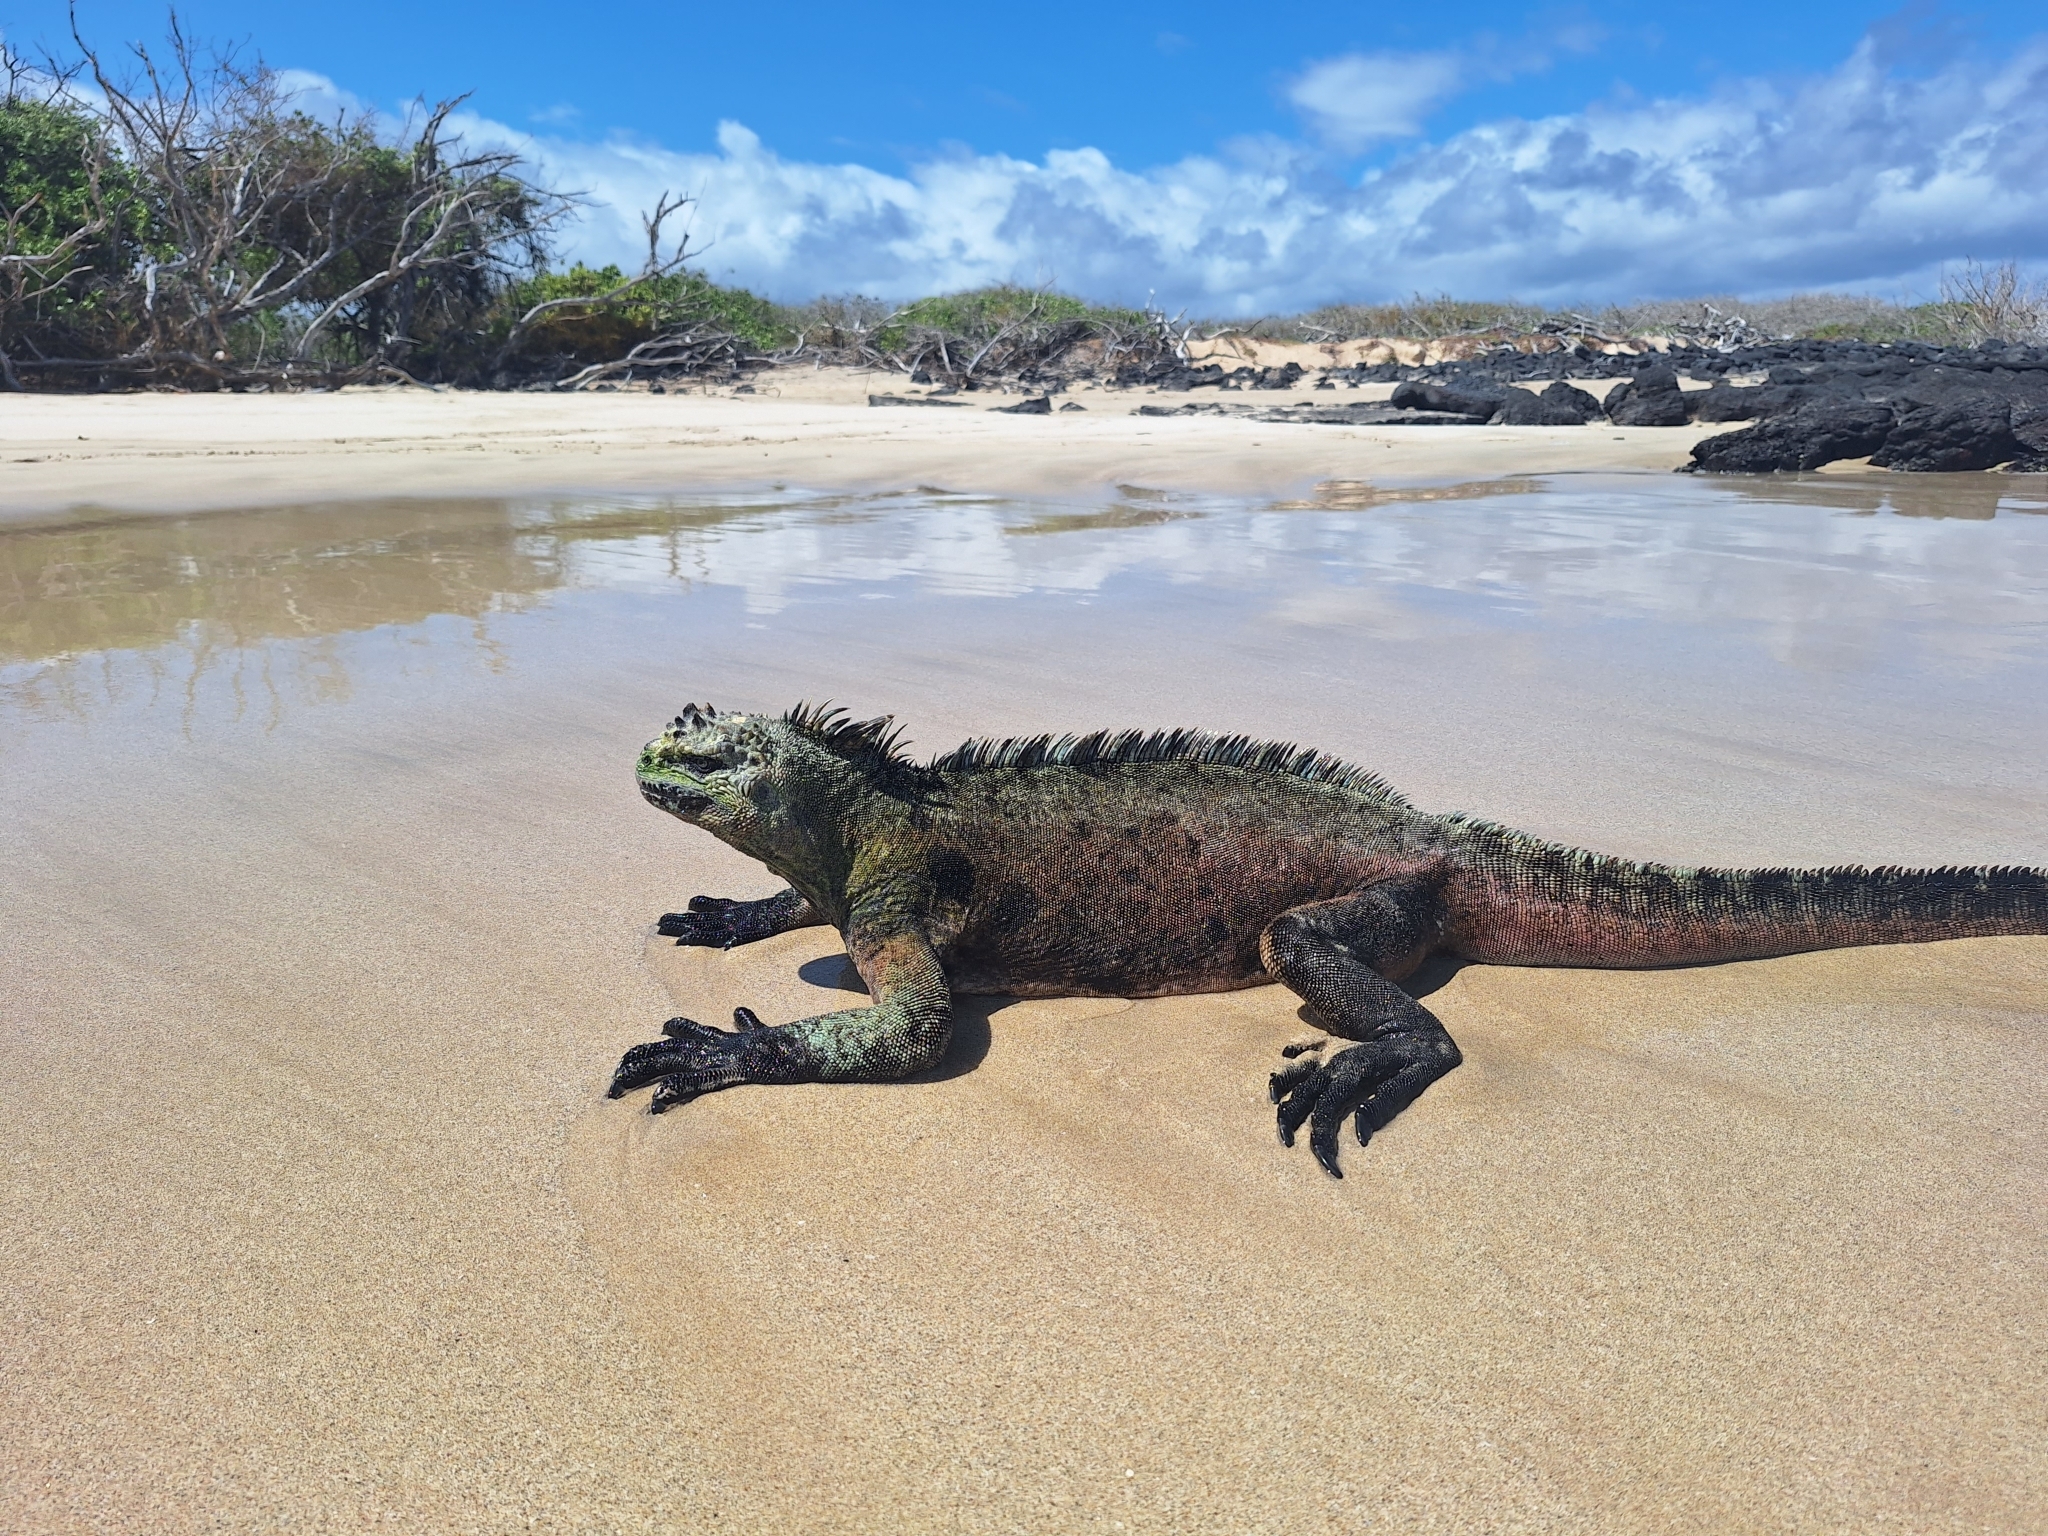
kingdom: Animalia
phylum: Chordata
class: Squamata
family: Iguanidae
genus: Amblyrhynchus
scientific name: Amblyrhynchus cristatus
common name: Marine iguana
